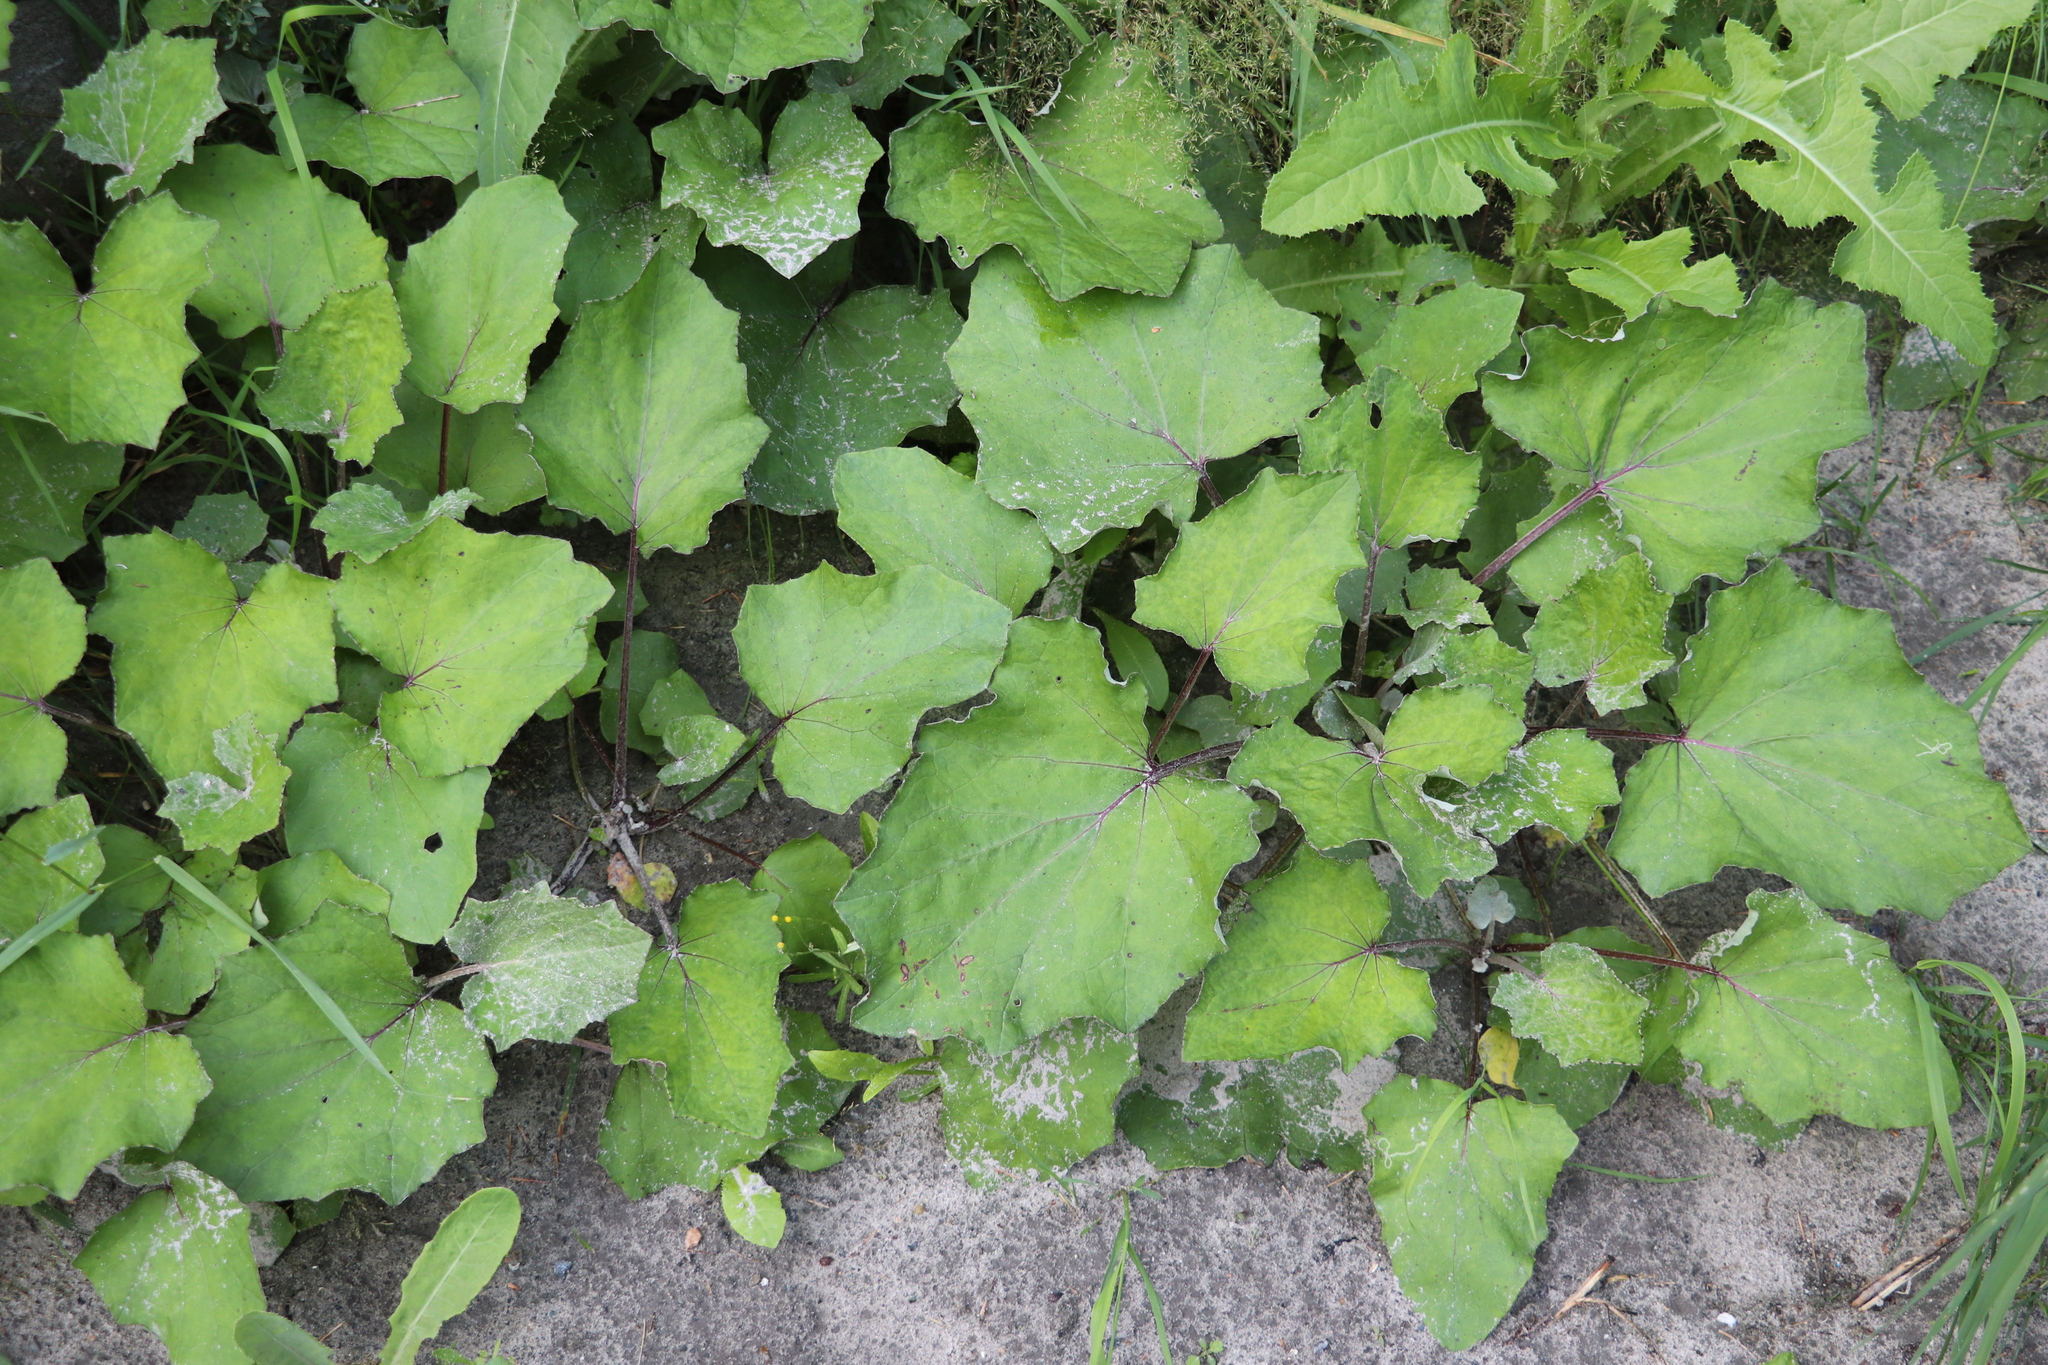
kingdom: Plantae
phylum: Tracheophyta
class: Magnoliopsida
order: Asterales
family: Asteraceae
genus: Tussilago
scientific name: Tussilago farfara
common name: Coltsfoot
